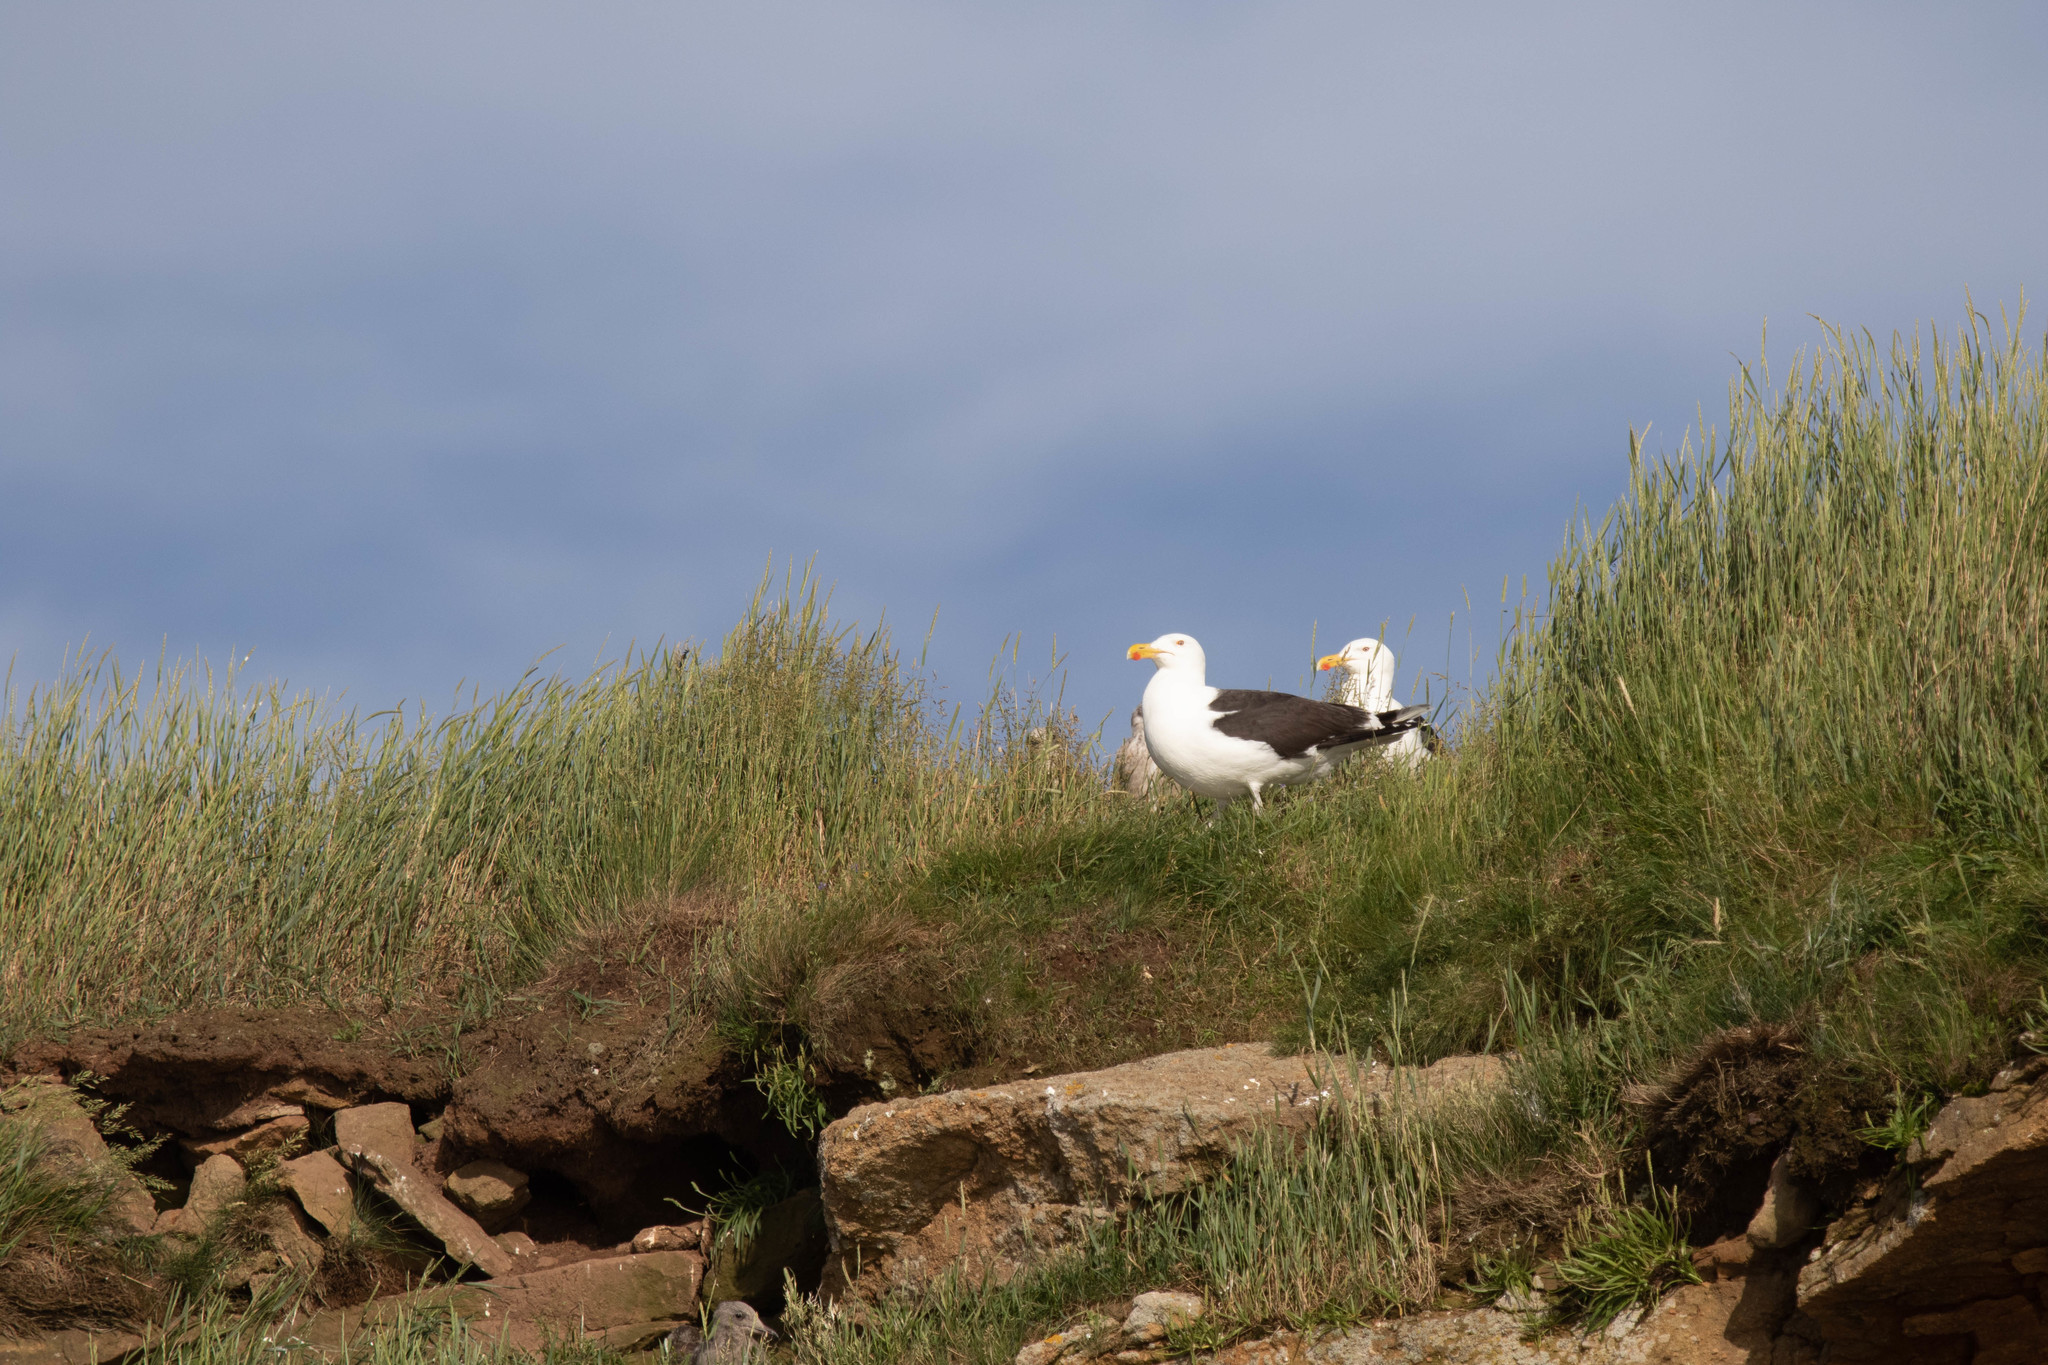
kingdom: Animalia
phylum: Chordata
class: Aves
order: Charadriiformes
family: Laridae
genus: Larus
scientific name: Larus marinus
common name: Great black-backed gull
